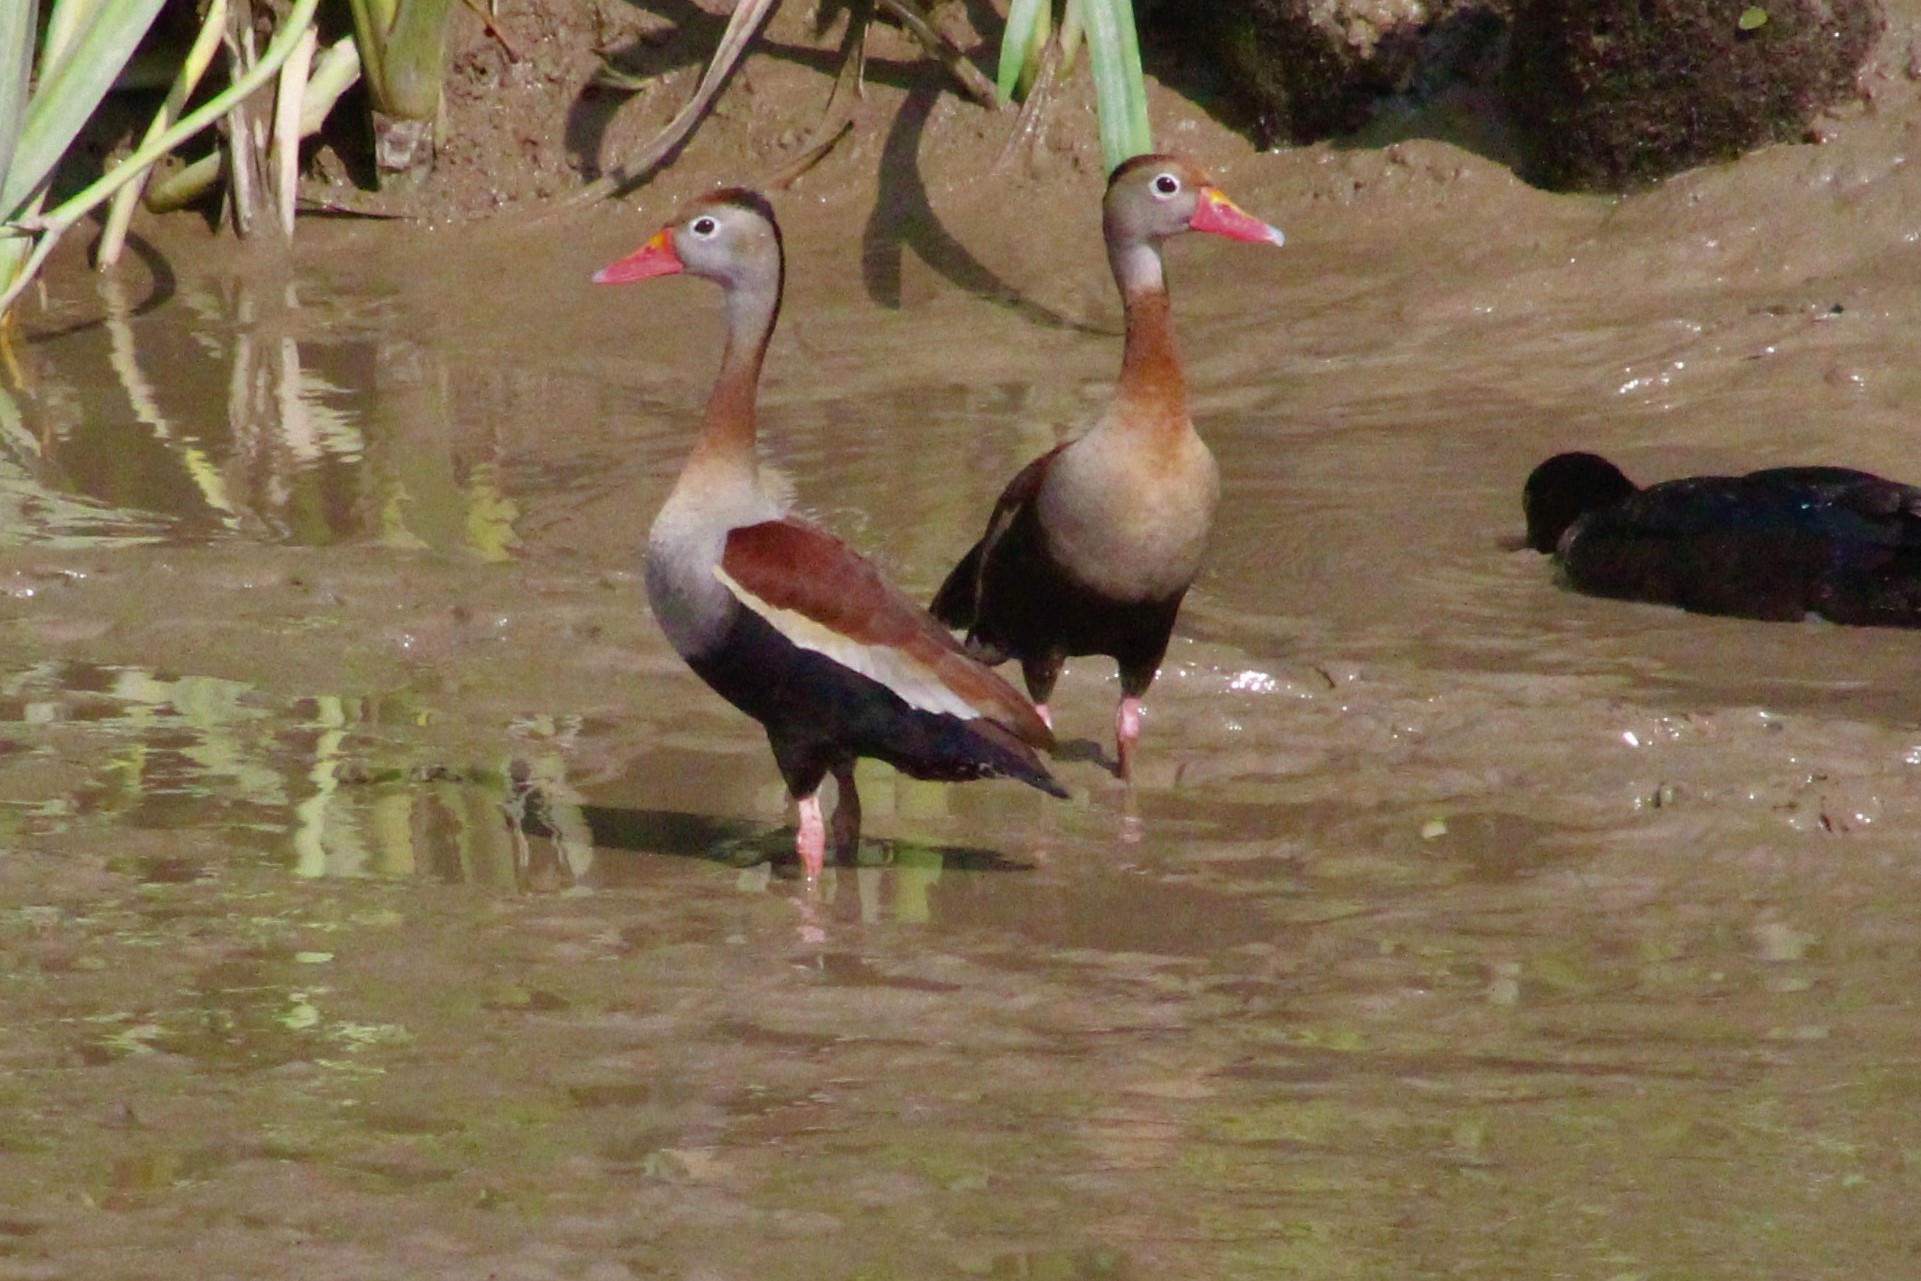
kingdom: Animalia
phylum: Chordata
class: Aves
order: Anseriformes
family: Anatidae
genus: Dendrocygna
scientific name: Dendrocygna autumnalis
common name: Black-bellied whistling duck
